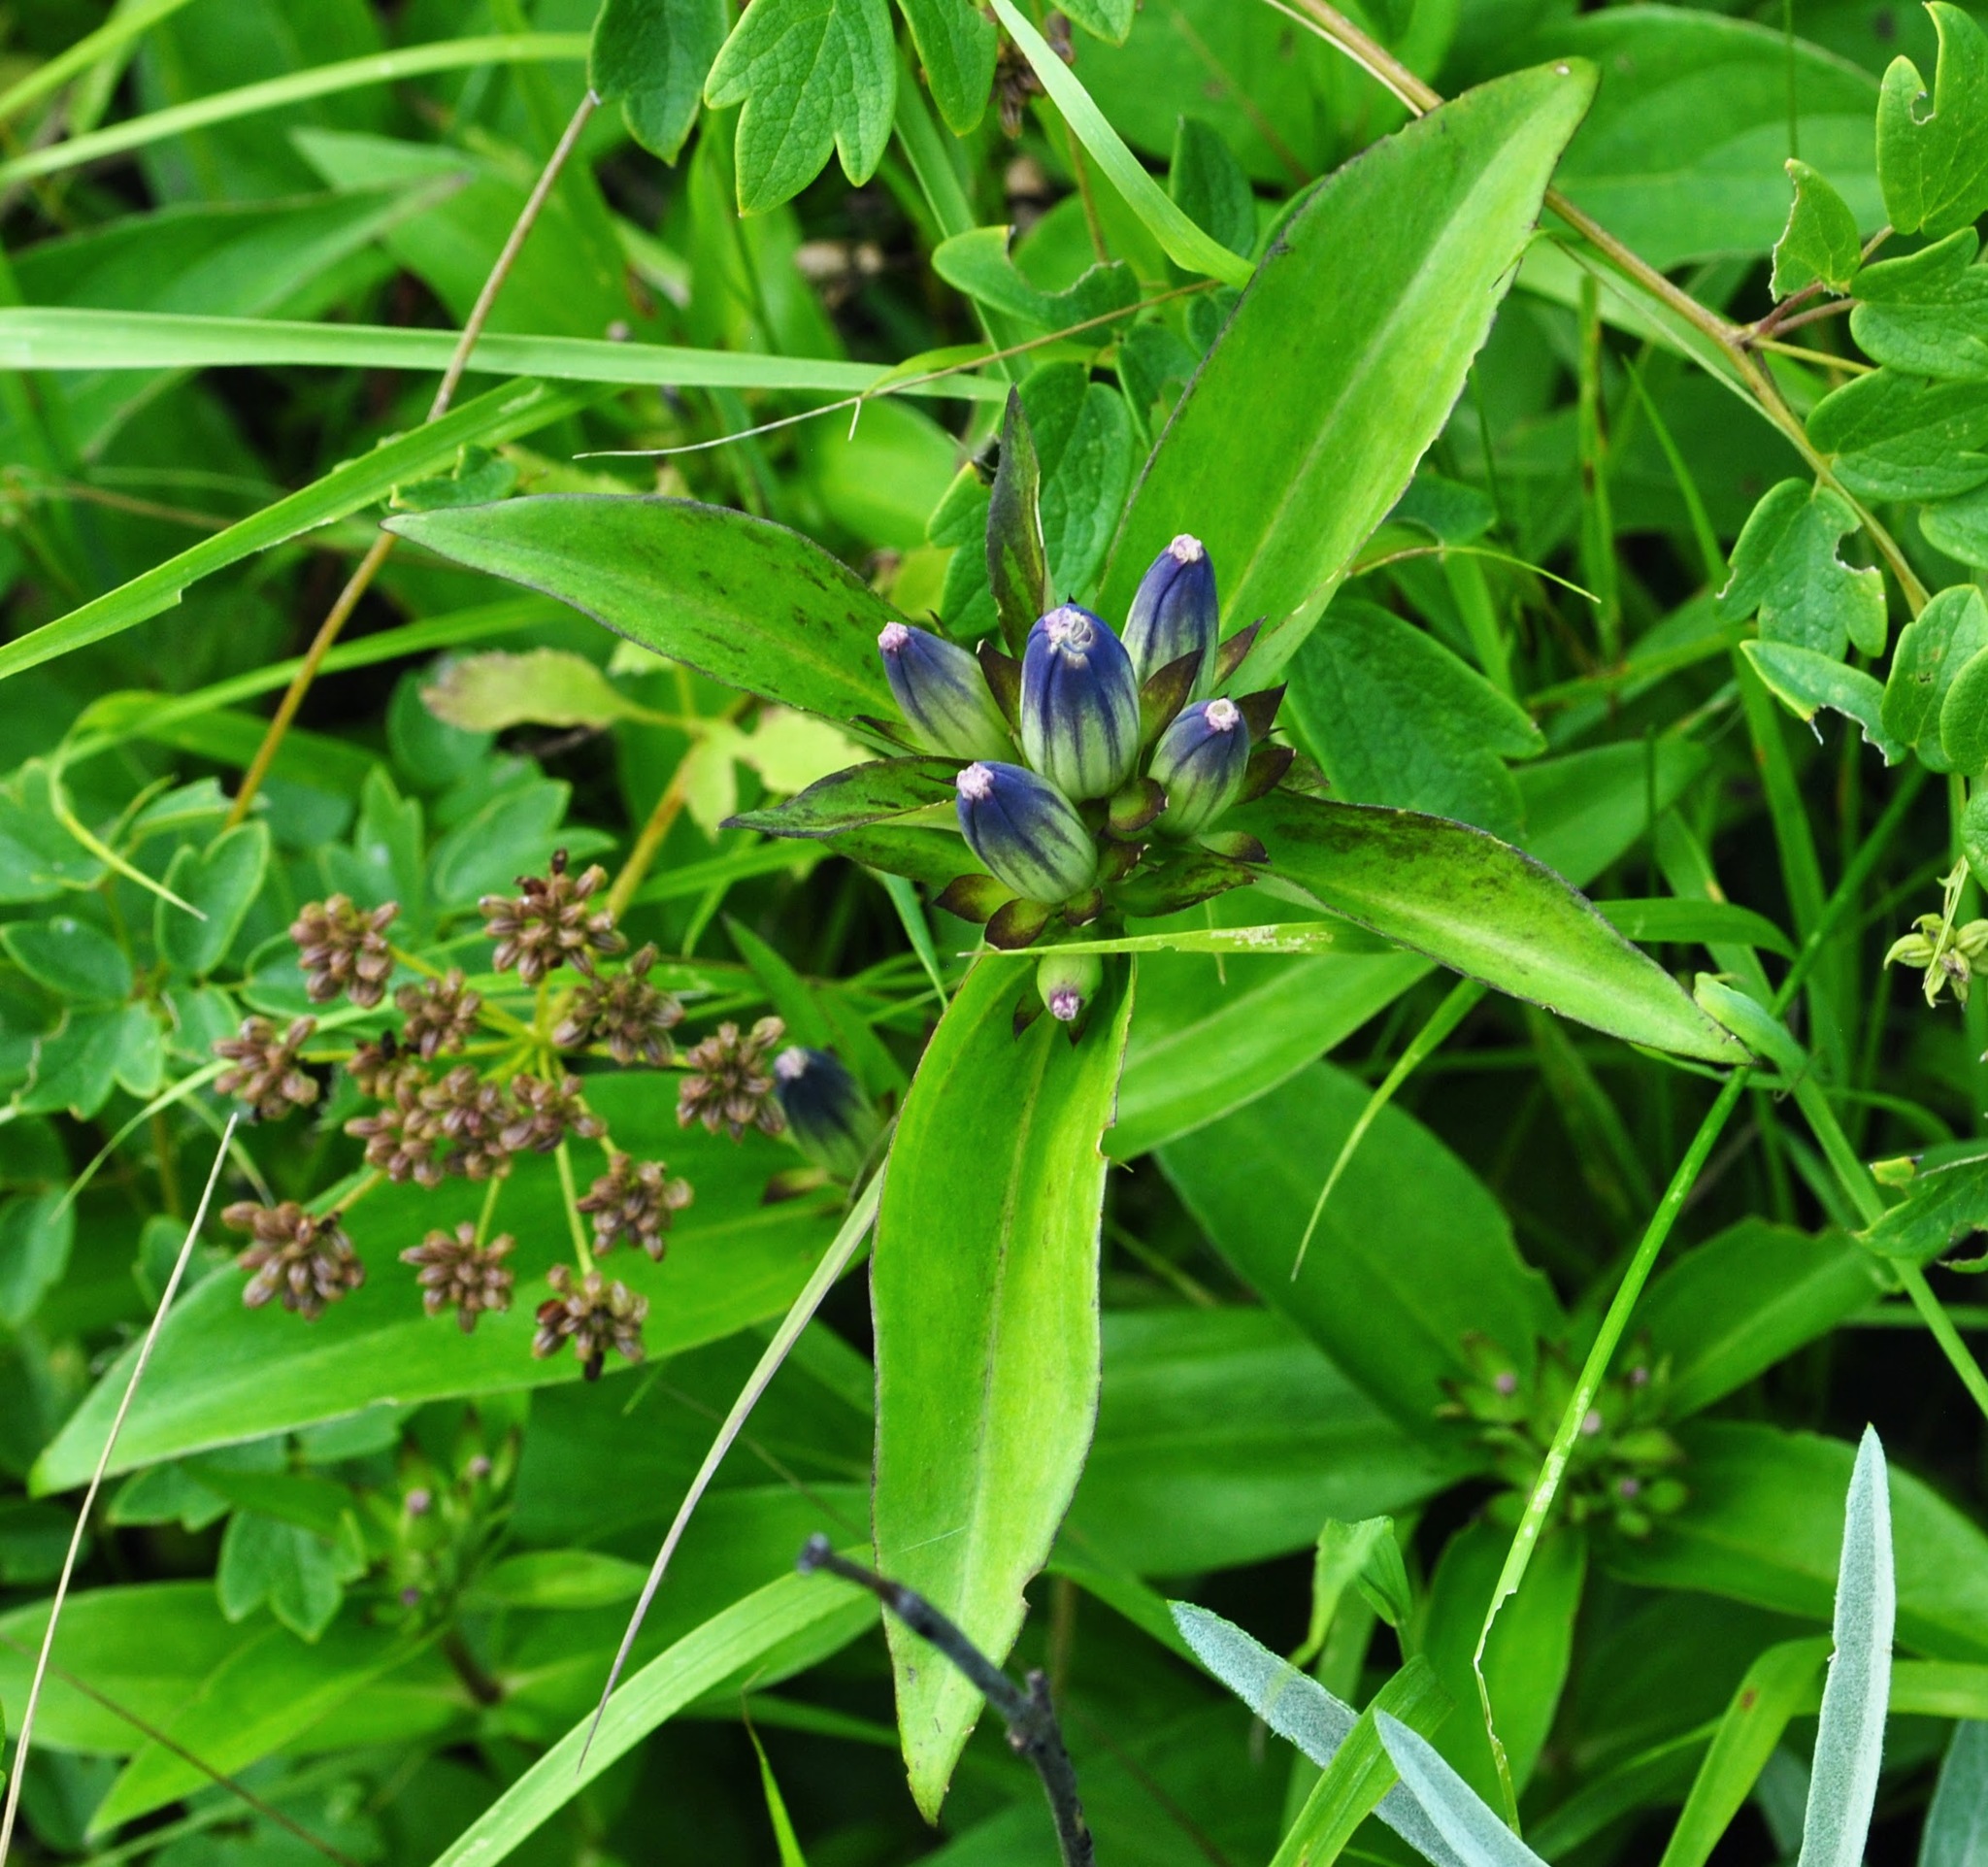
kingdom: Plantae
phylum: Tracheophyta
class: Magnoliopsida
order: Gentianales
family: Gentianaceae
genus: Gentiana
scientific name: Gentiana andrewsii
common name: Bottle gentian
